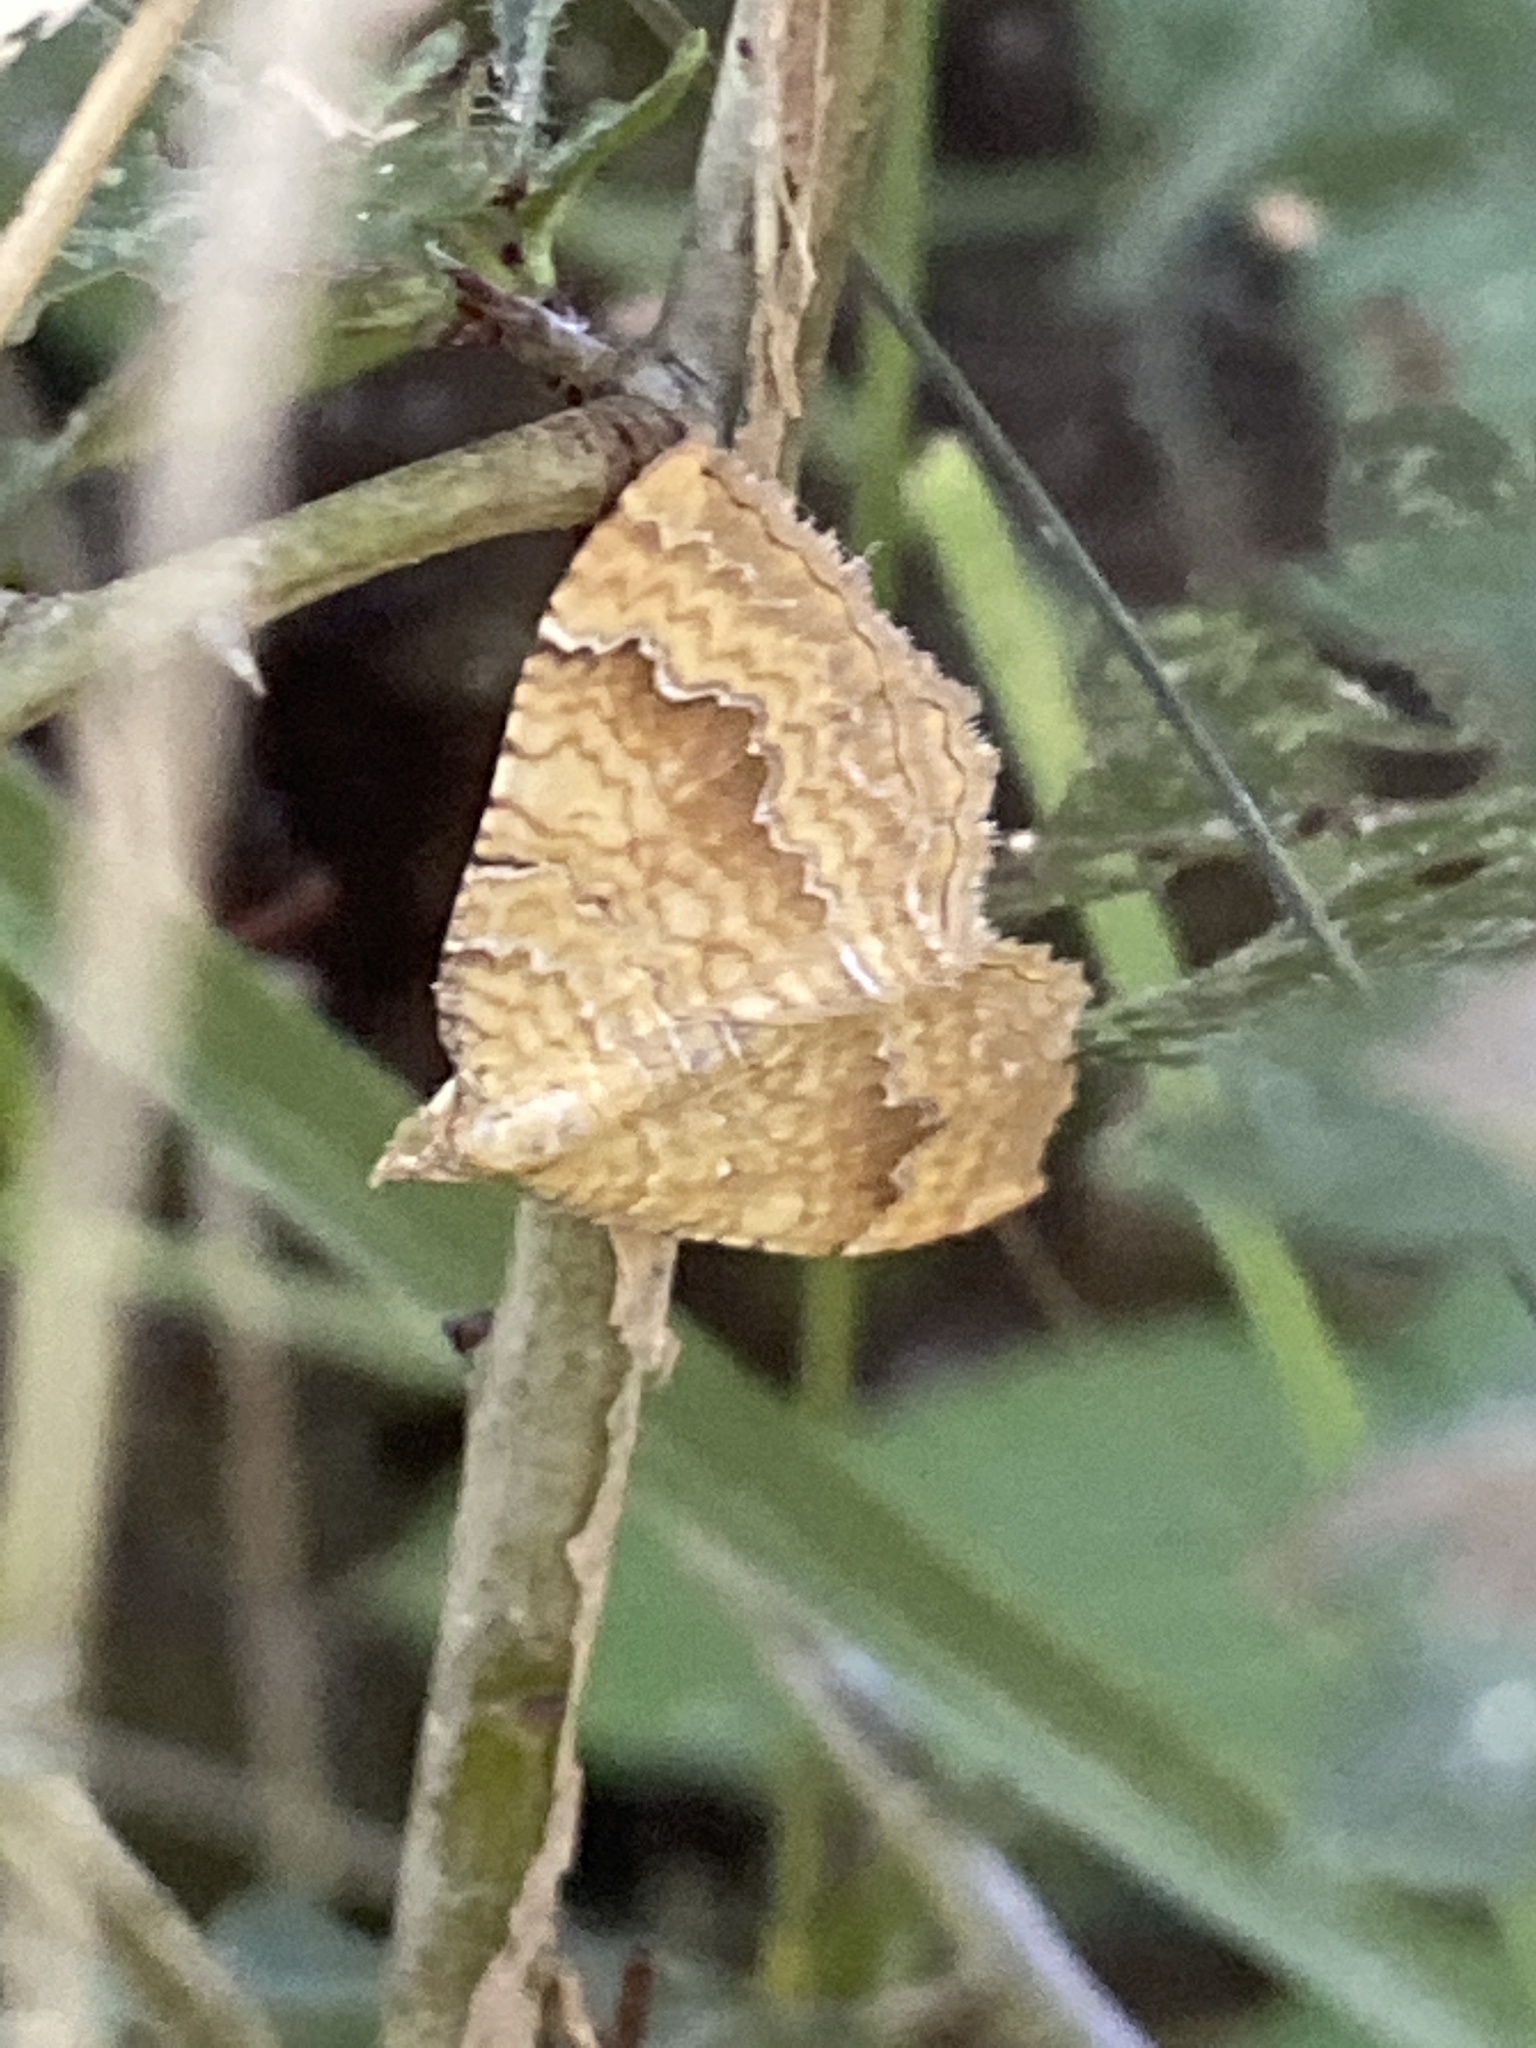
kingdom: Animalia
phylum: Arthropoda
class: Insecta
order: Lepidoptera
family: Geometridae
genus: Camptogramma
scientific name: Camptogramma bilineata
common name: Yellow shell
